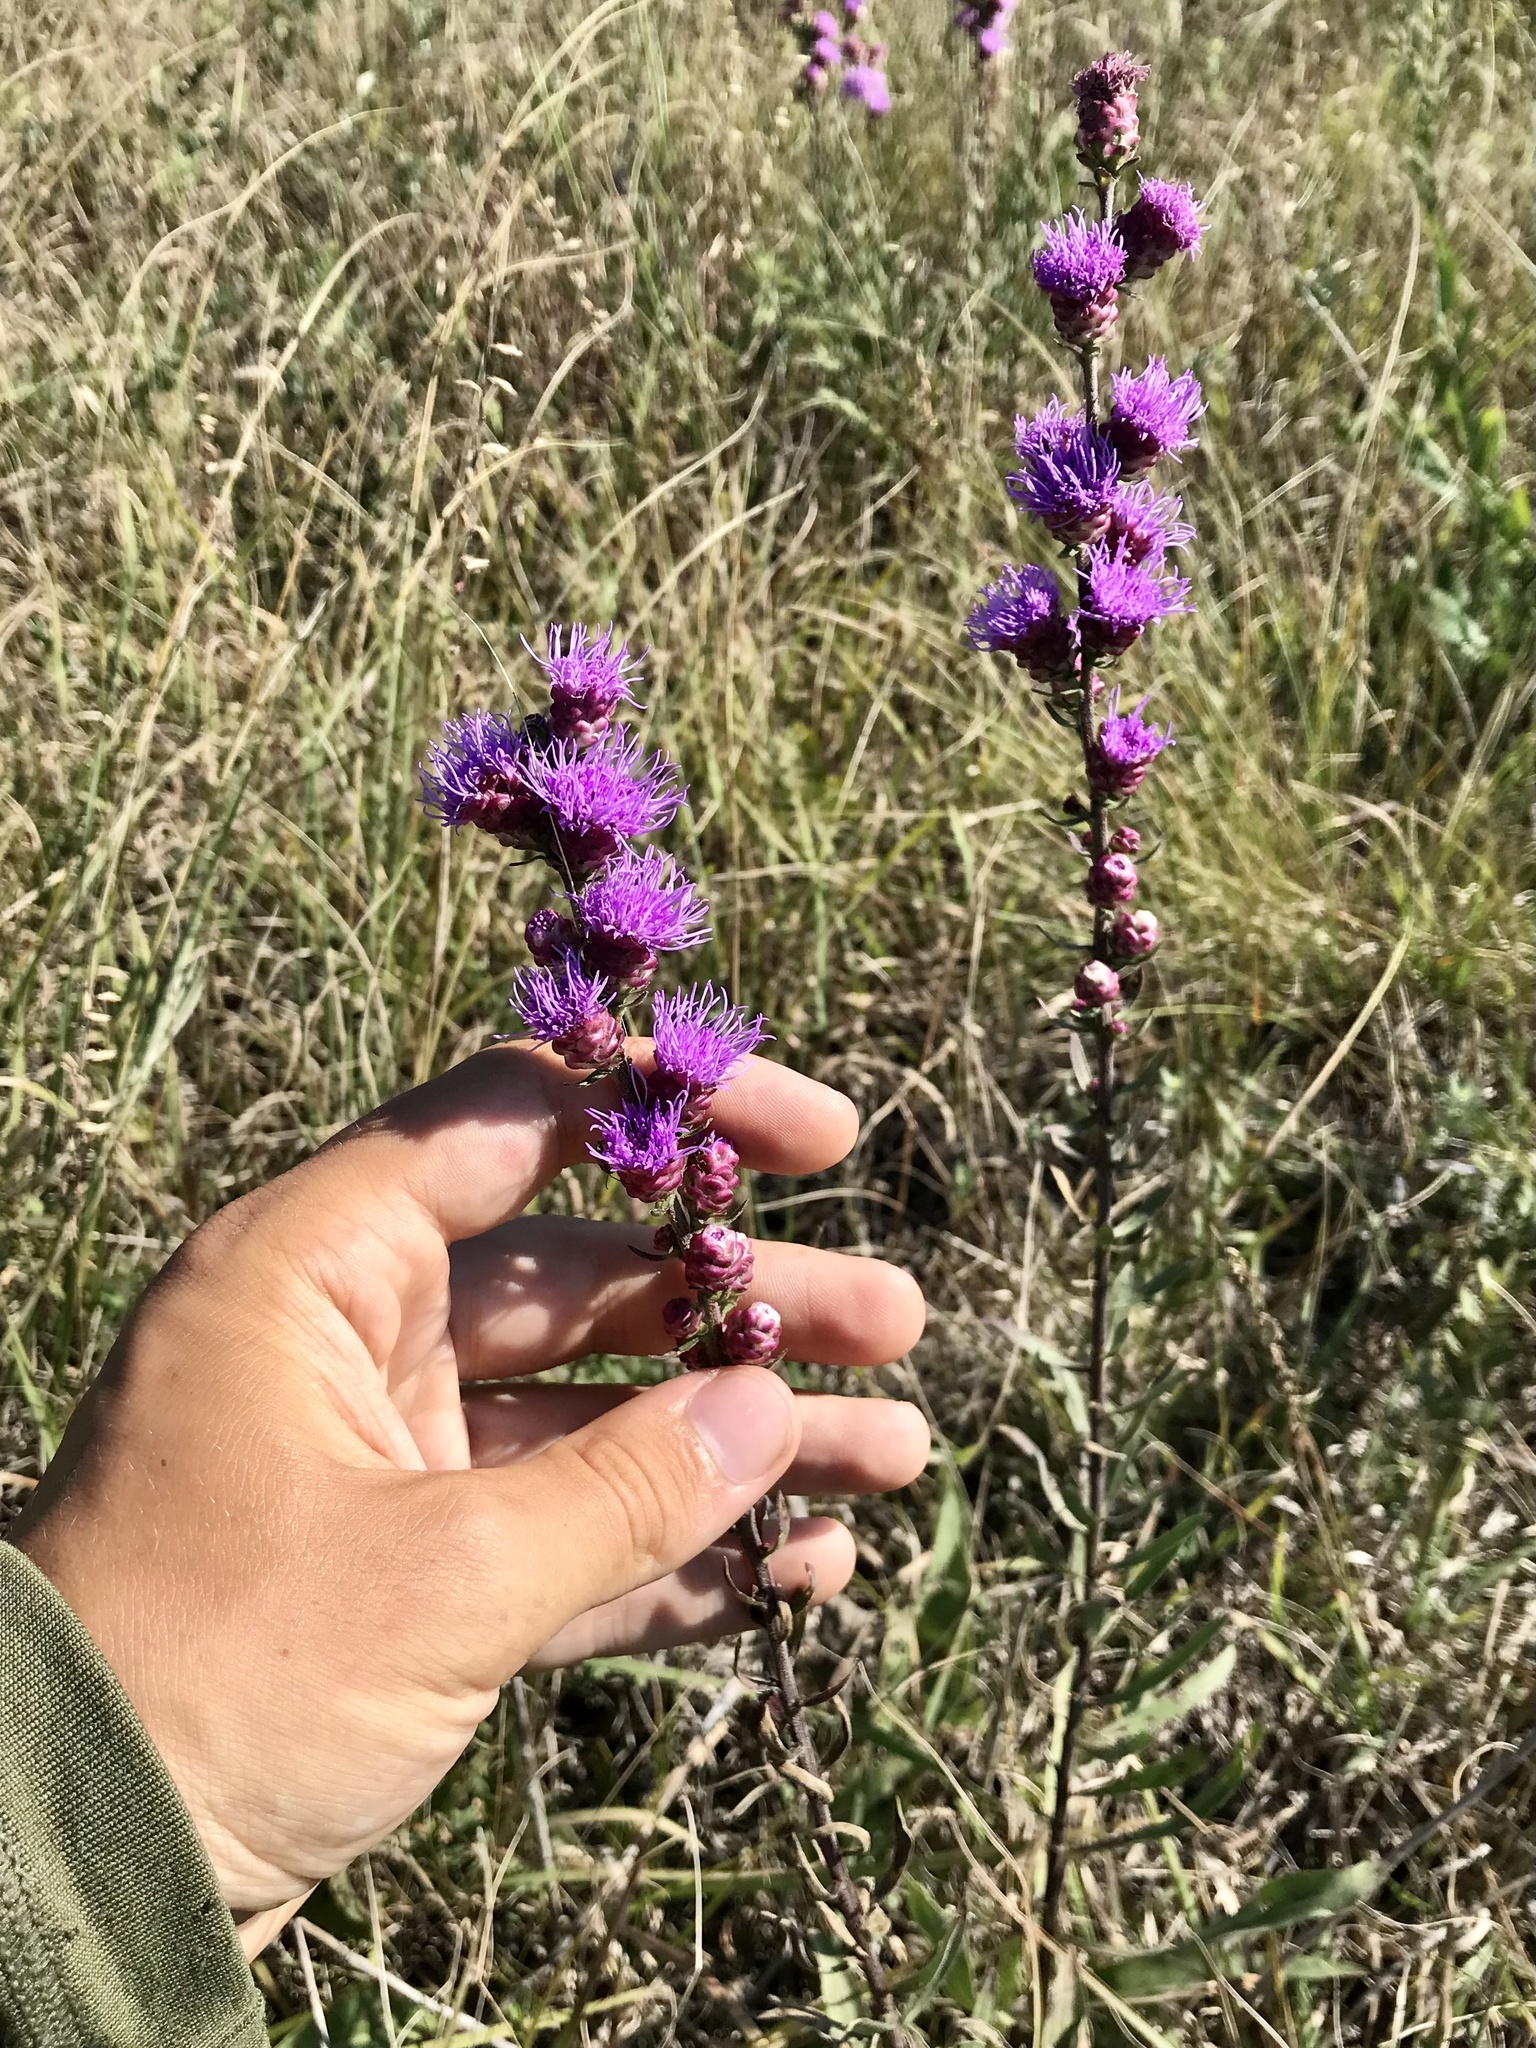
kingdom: Plantae
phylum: Tracheophyta
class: Magnoliopsida
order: Asterales
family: Asteraceae
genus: Liatris
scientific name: Liatris aspera
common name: Lacerate blazing-star
